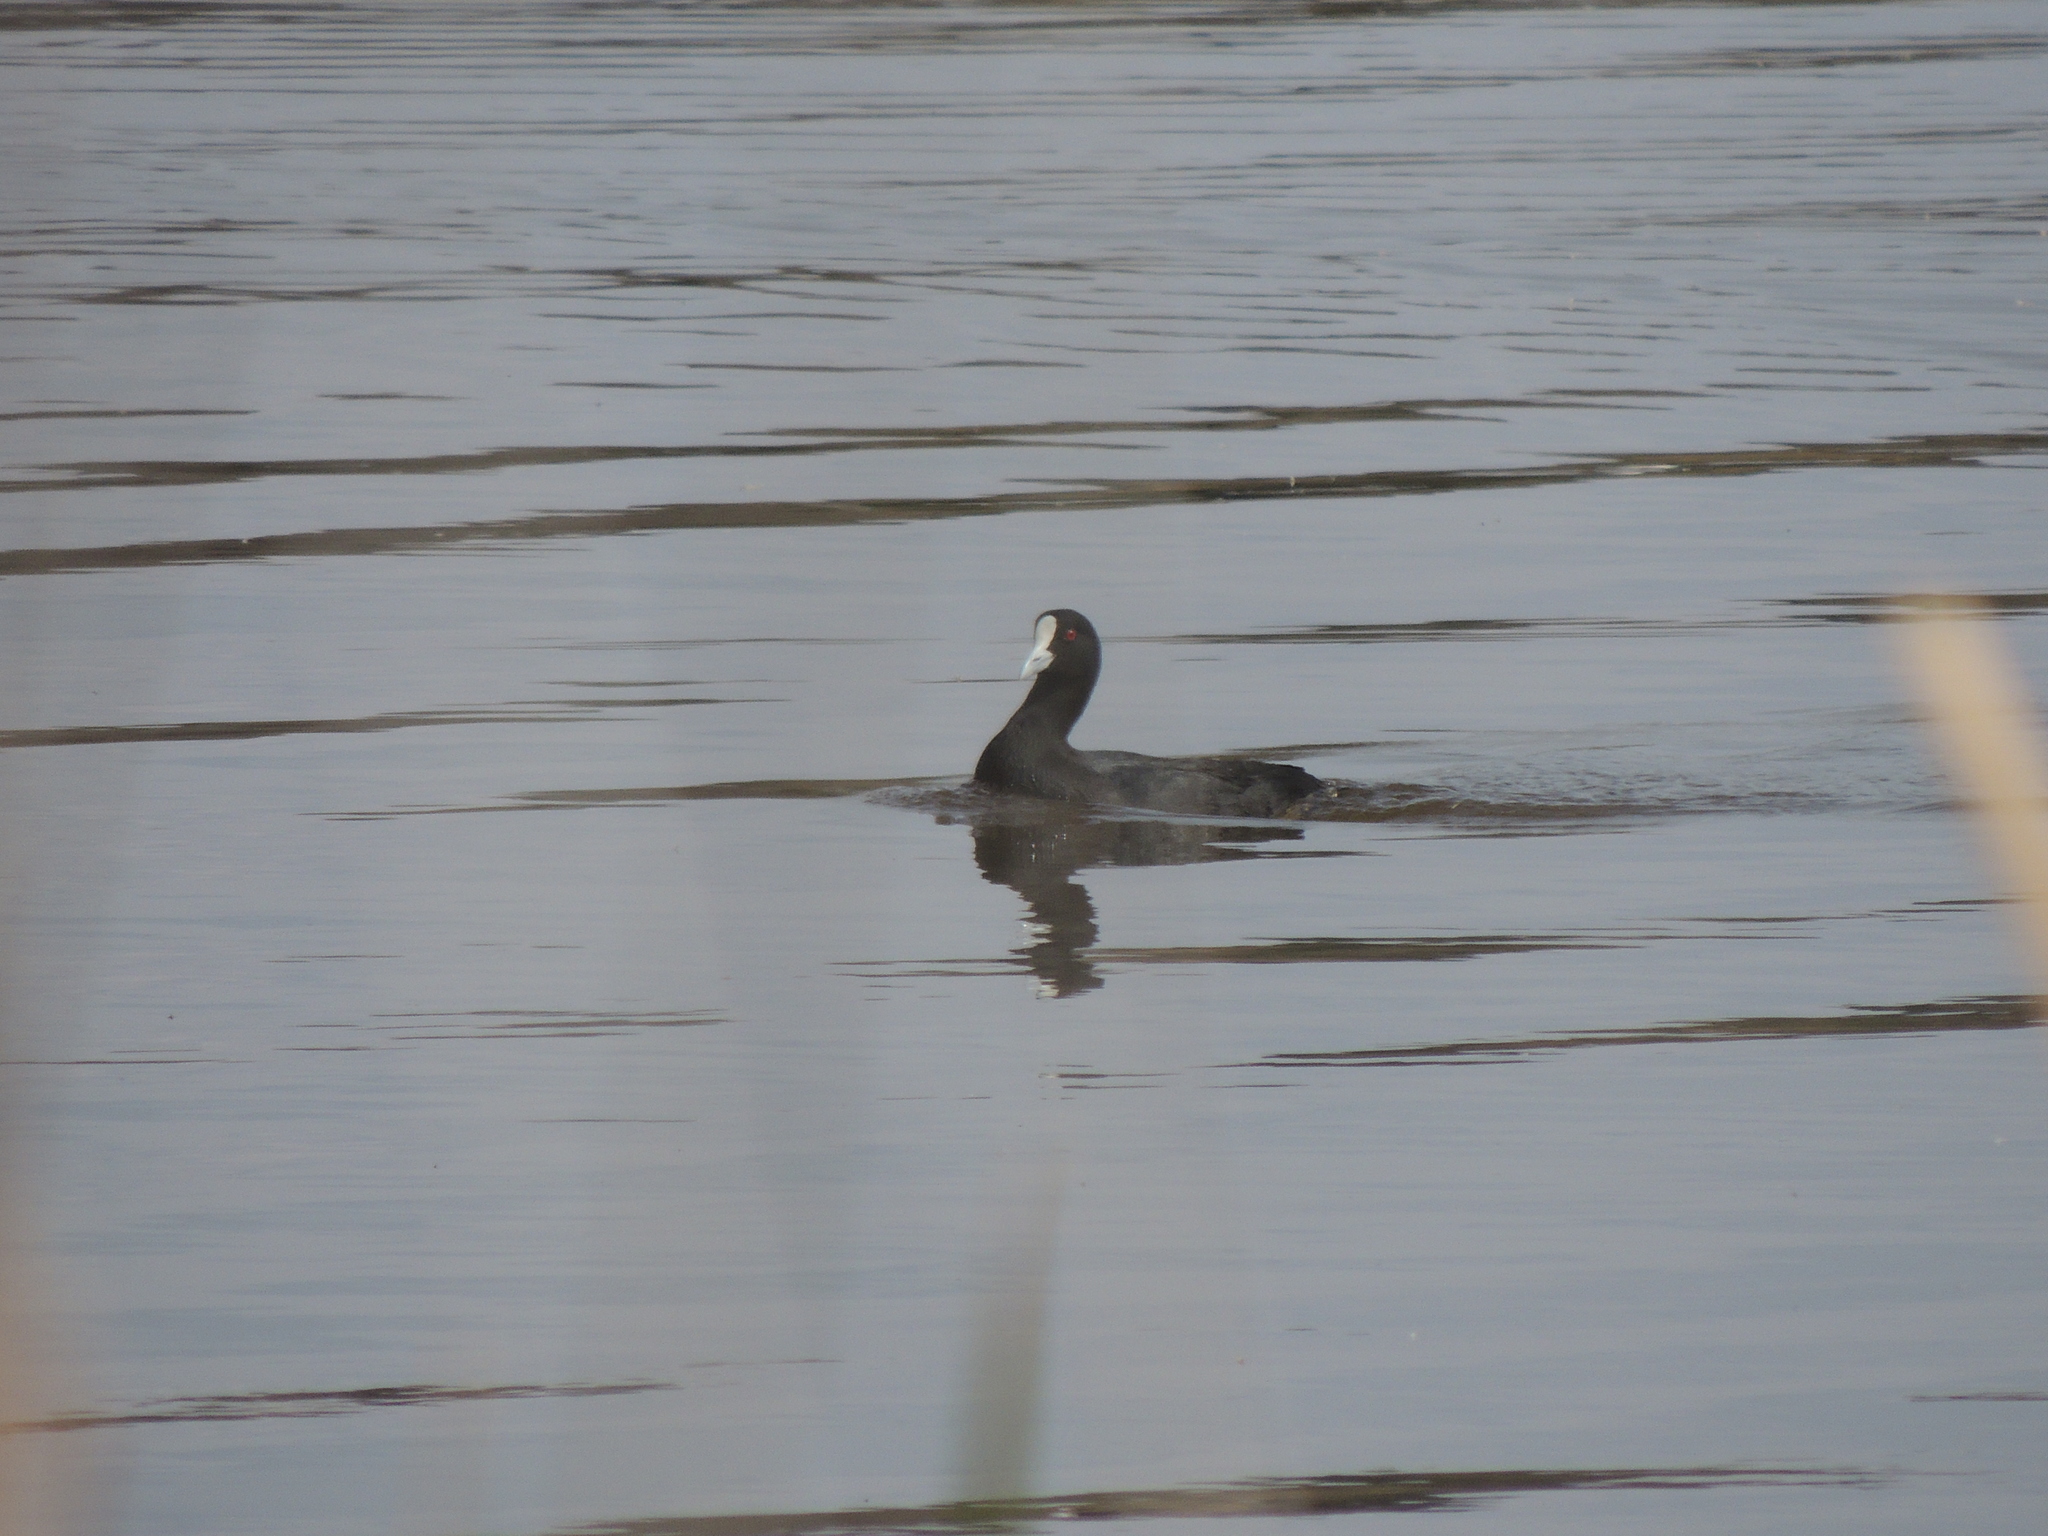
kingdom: Animalia
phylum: Chordata
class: Aves
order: Gruiformes
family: Rallidae
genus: Fulica
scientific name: Fulica atra
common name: Eurasian coot
